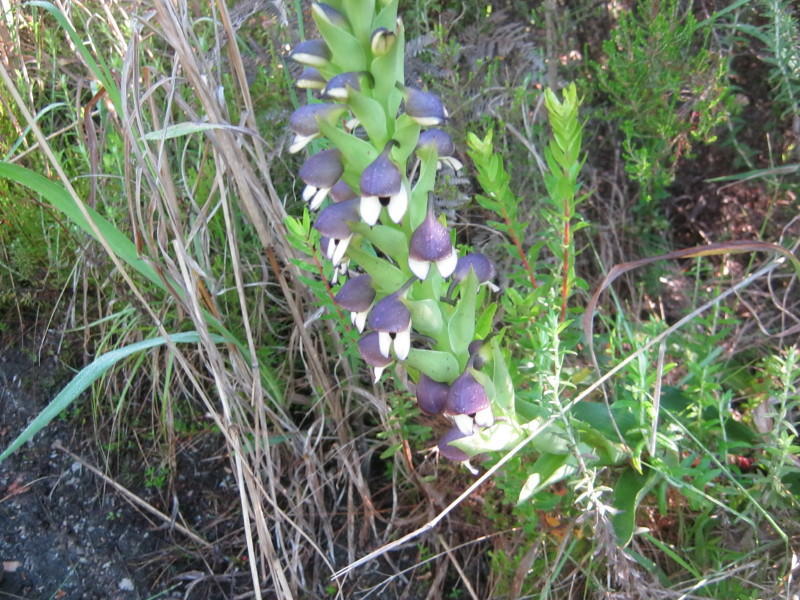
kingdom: Plantae
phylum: Tracheophyta
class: Liliopsida
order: Asparagales
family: Orchidaceae
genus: Disa
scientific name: Disa cornuta
